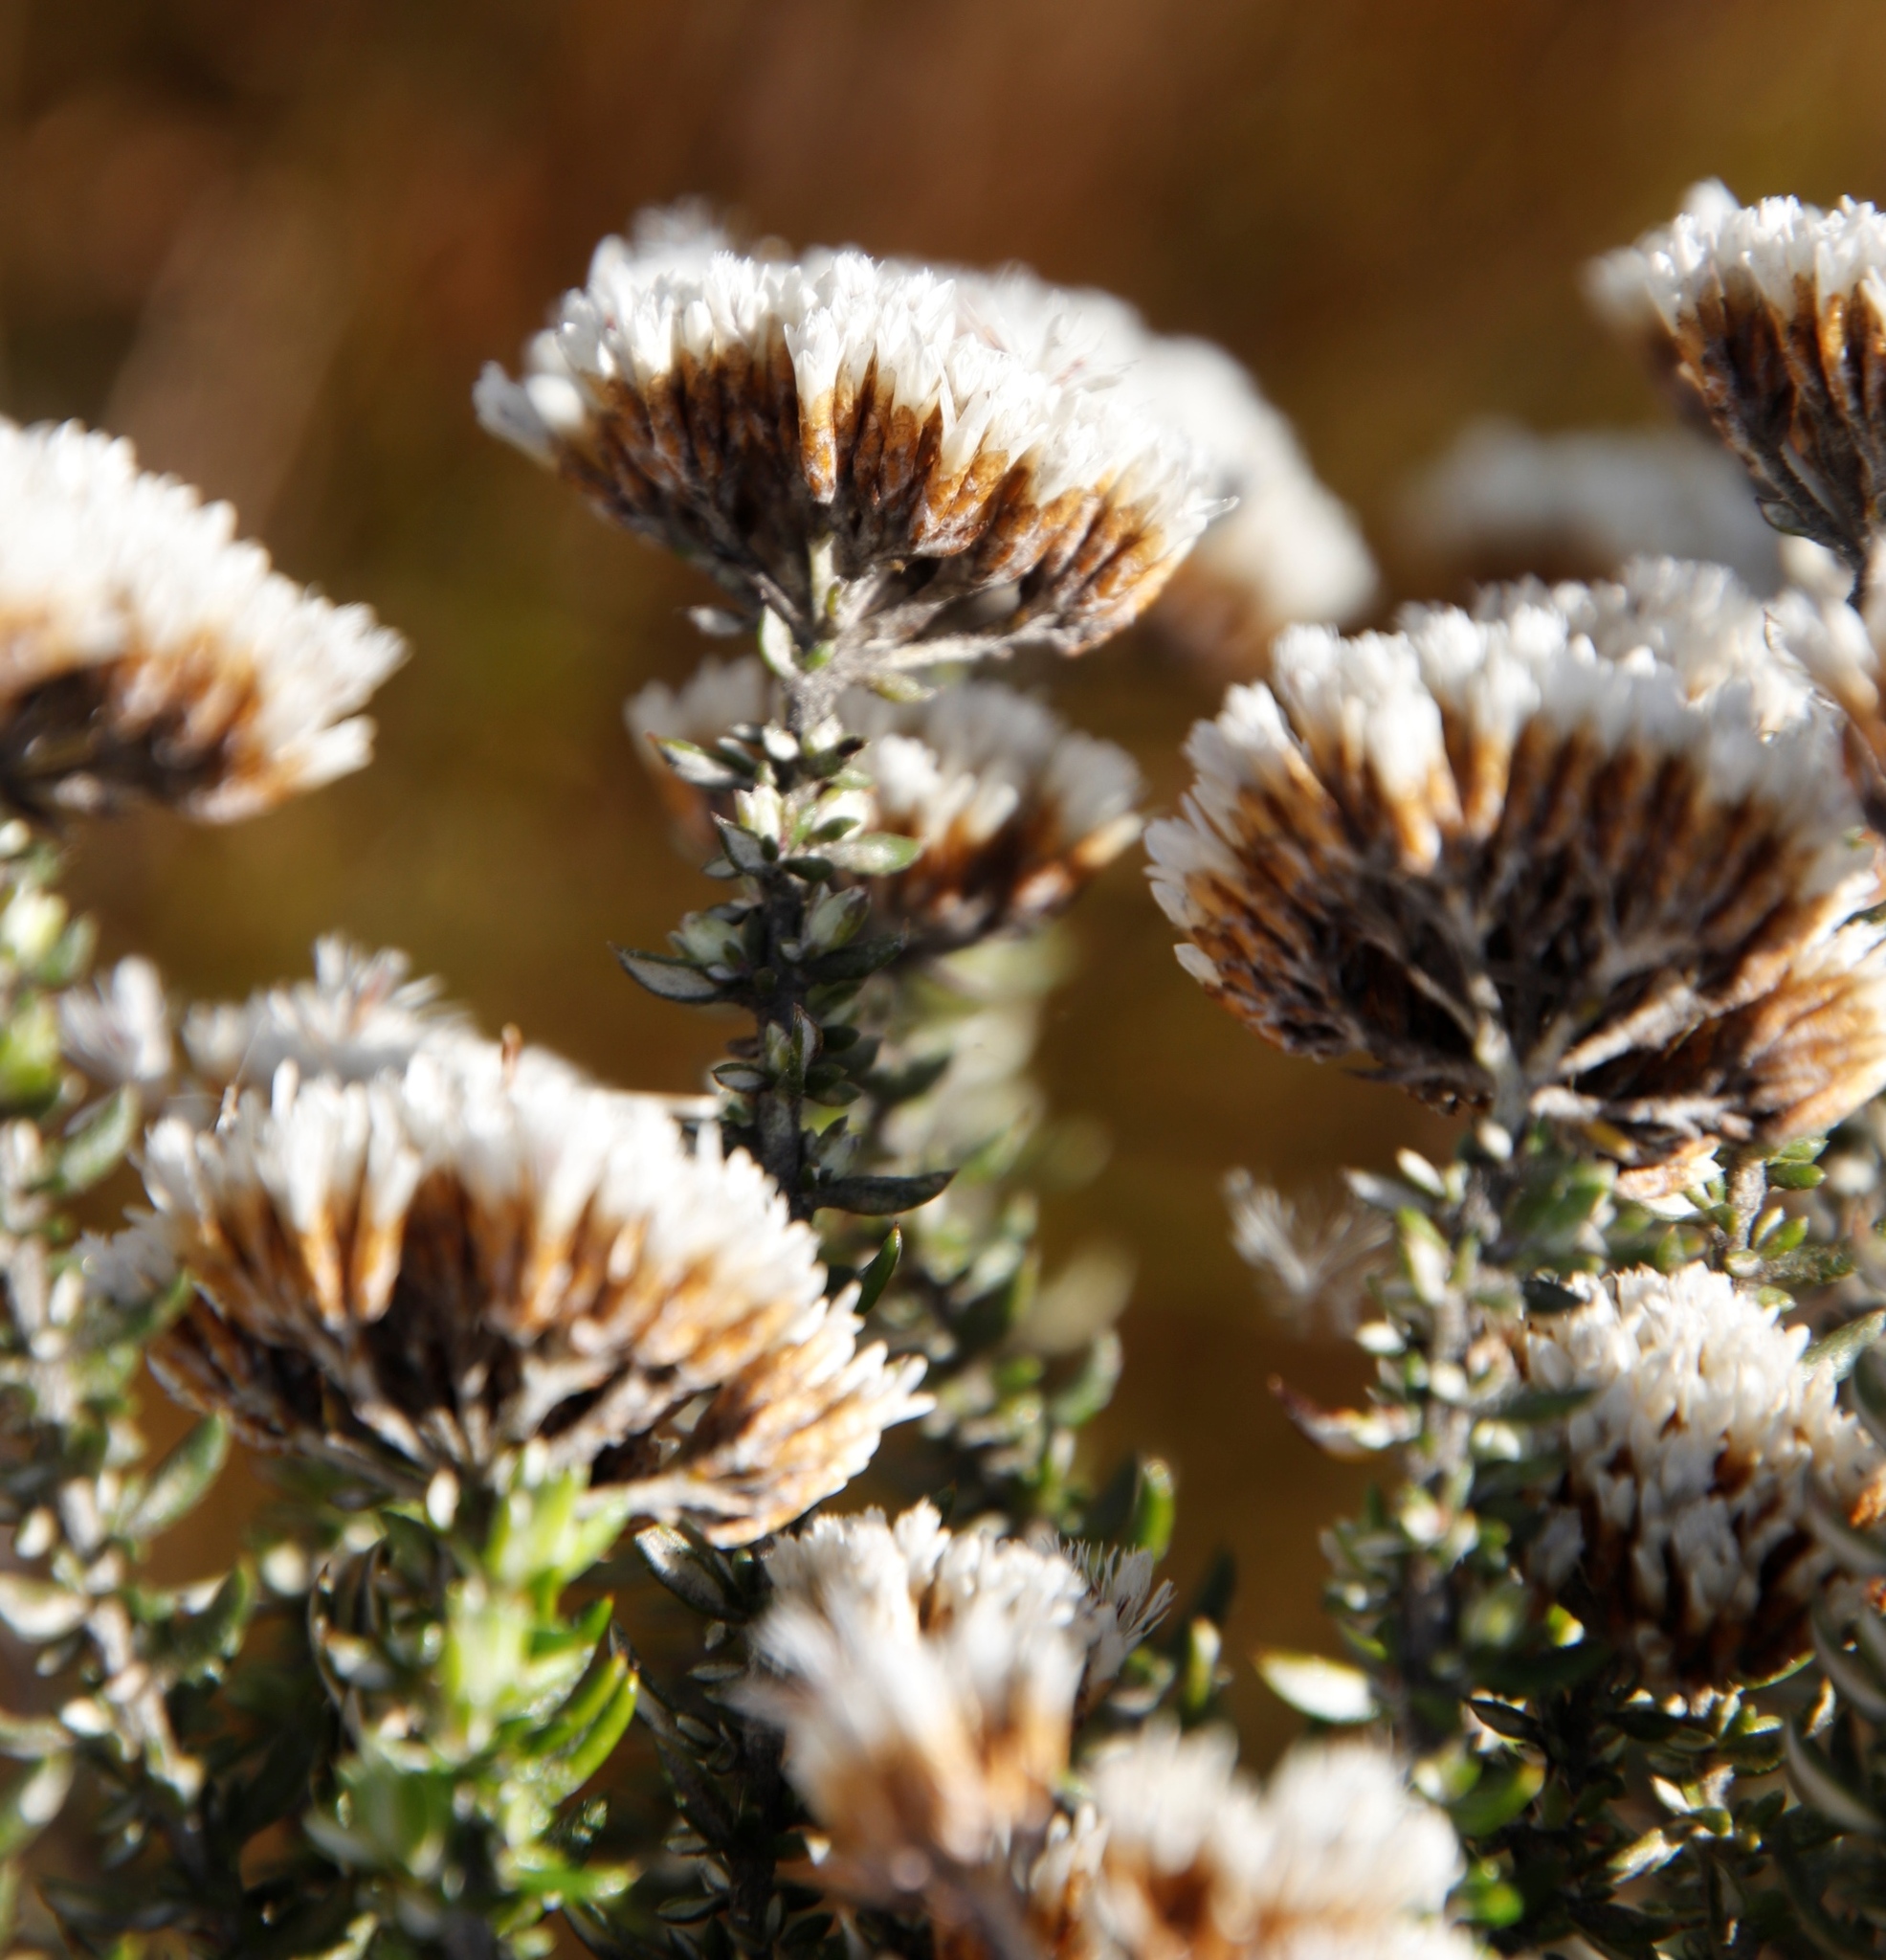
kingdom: Plantae
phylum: Tracheophyta
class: Magnoliopsida
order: Asterales
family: Asteraceae
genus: Metalasia
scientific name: Metalasia densa
